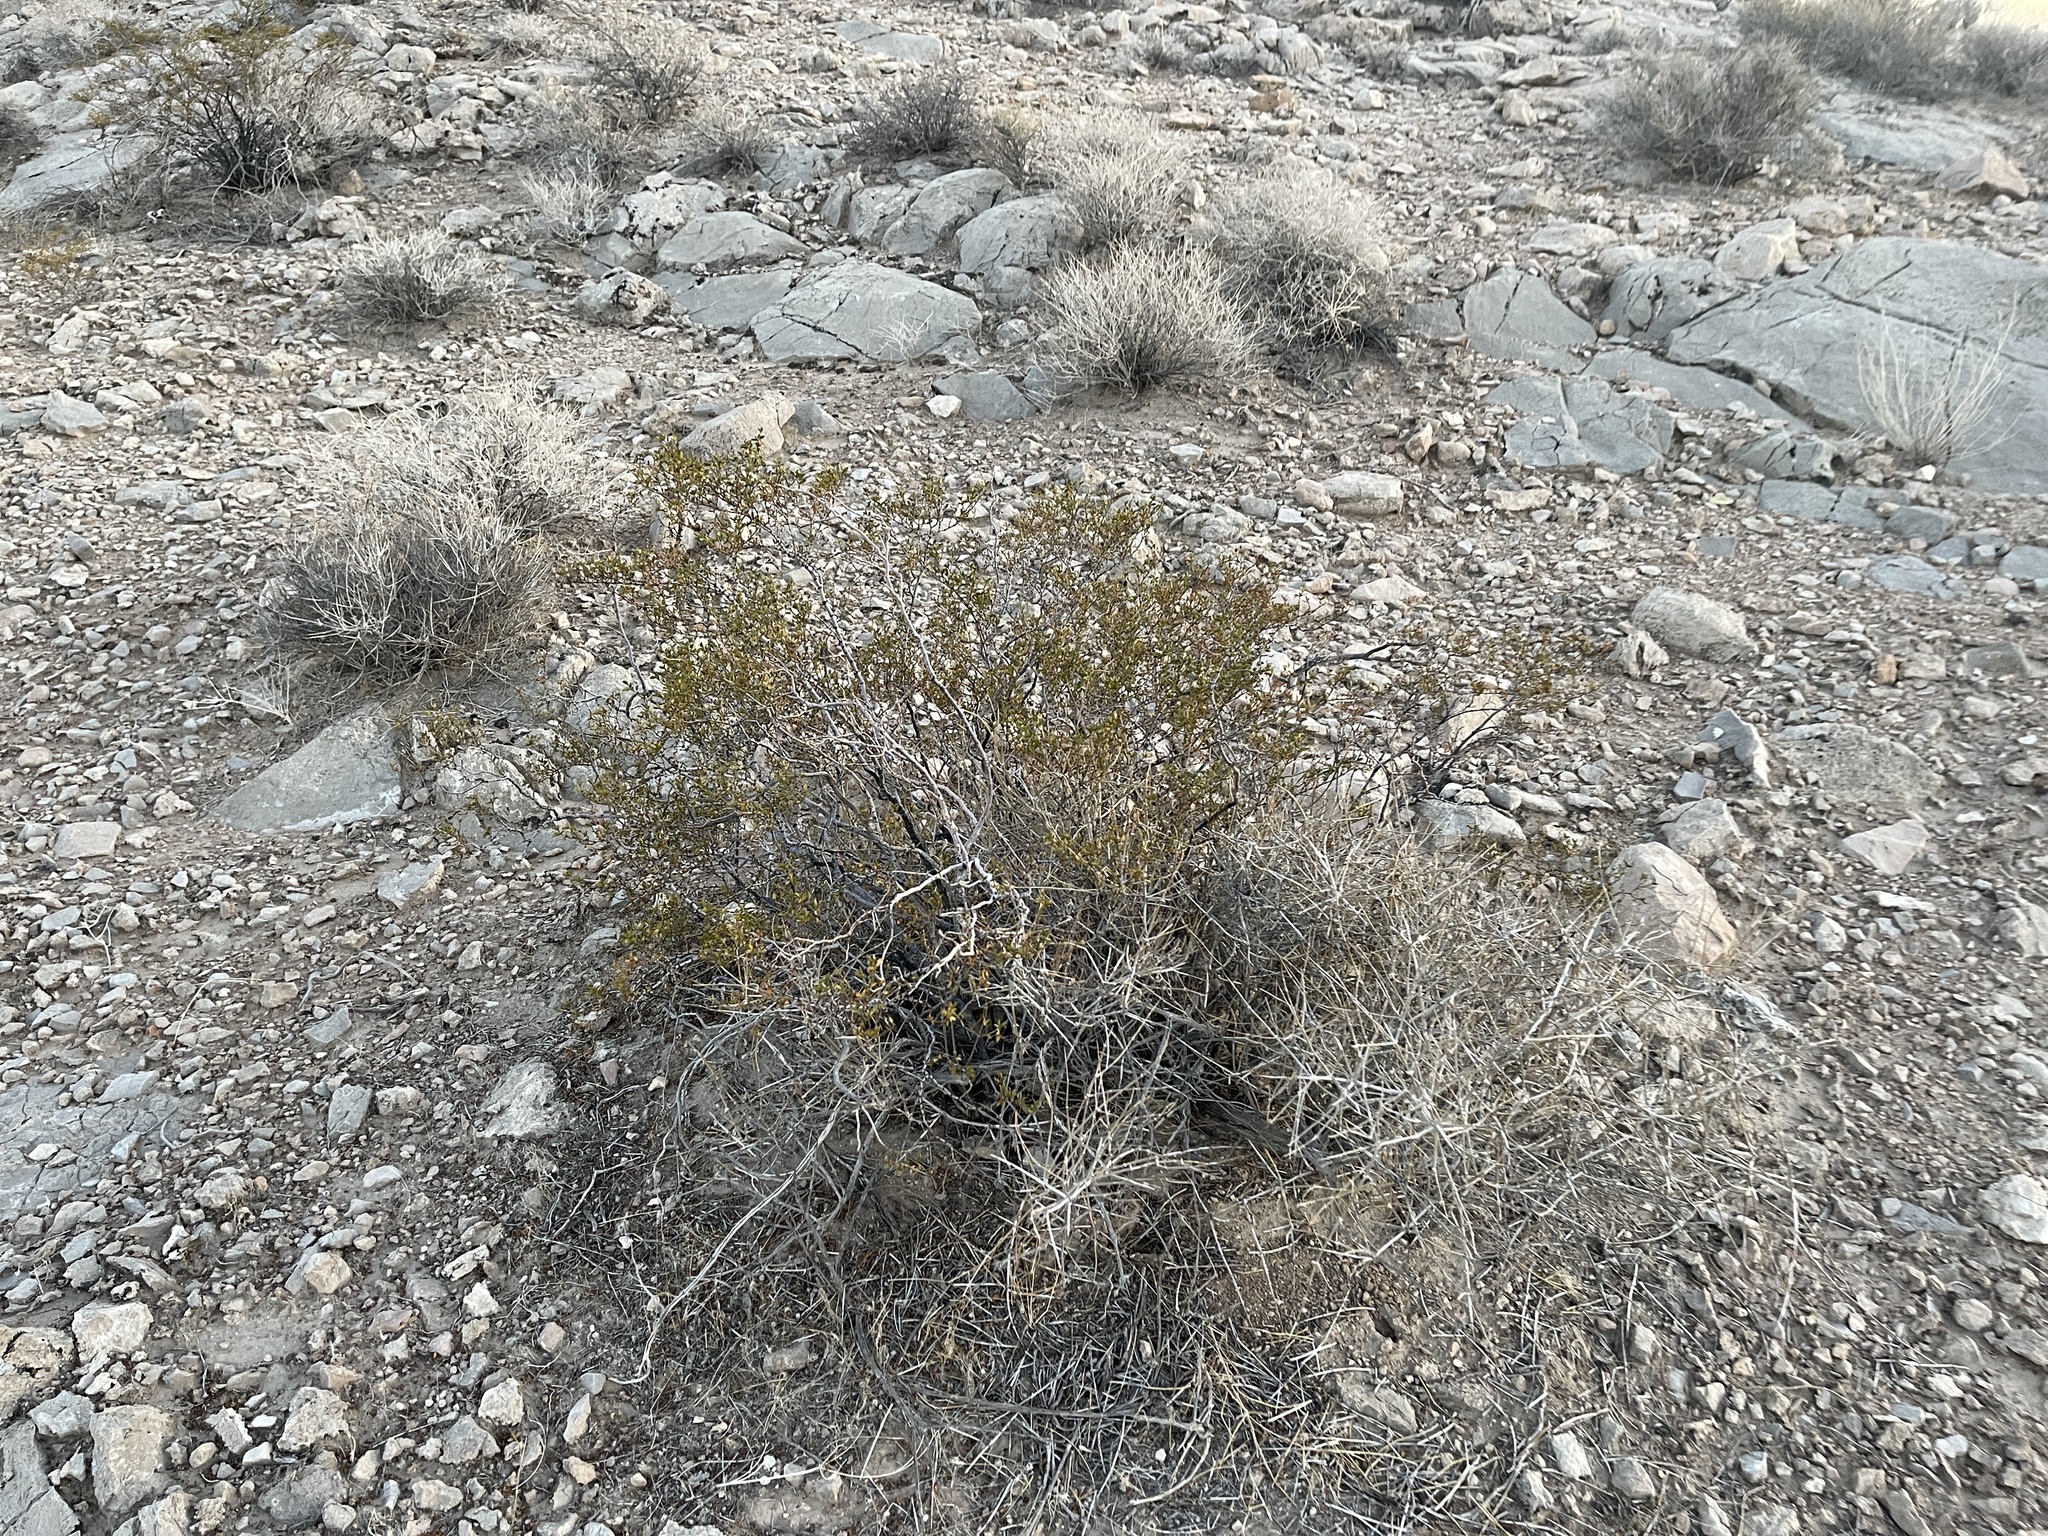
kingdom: Plantae
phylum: Tracheophyta
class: Magnoliopsida
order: Zygophyllales
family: Zygophyllaceae
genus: Larrea
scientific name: Larrea tridentata
